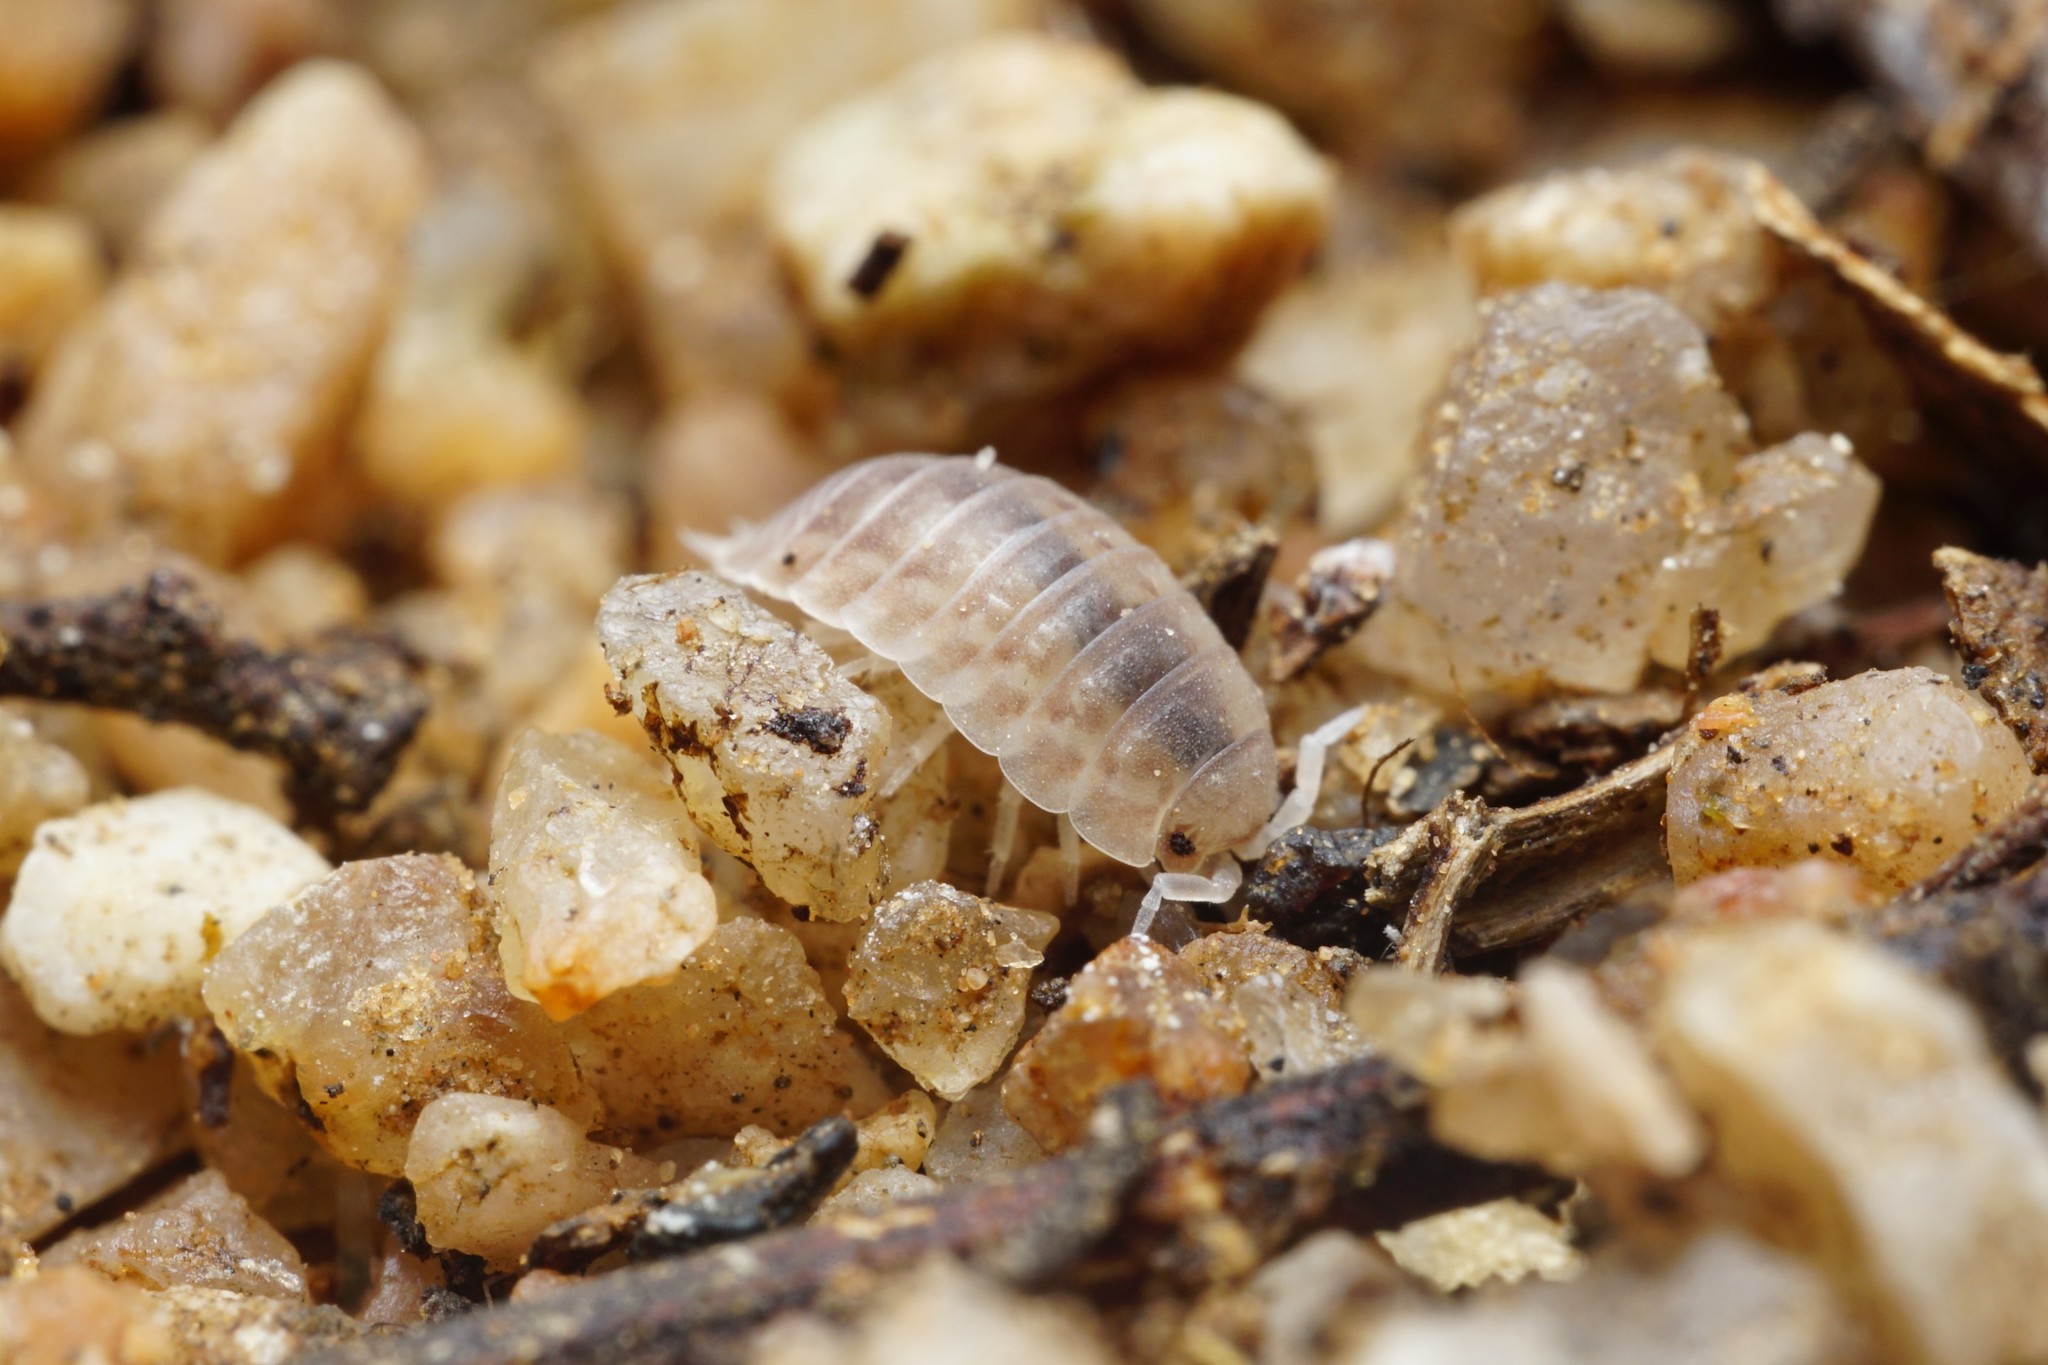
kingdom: Animalia
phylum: Arthropoda
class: Malacostraca
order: Isopoda
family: Porcellionidae
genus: Agabiformius
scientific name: Agabiformius lentus
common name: Pillbug
